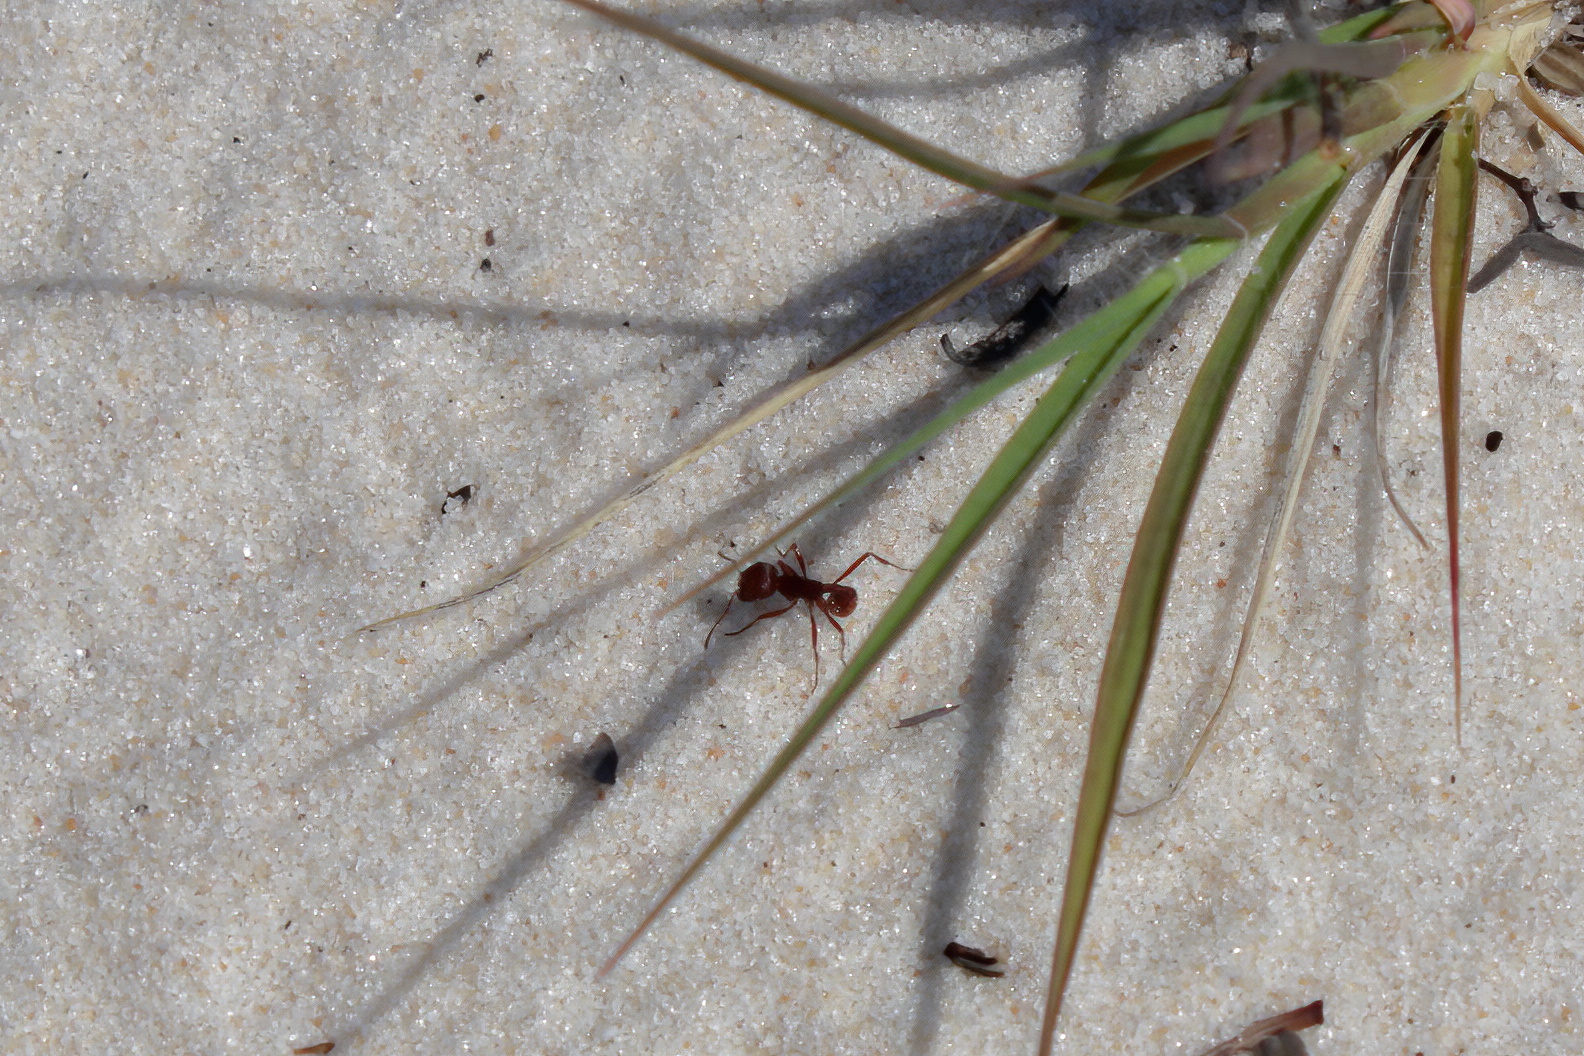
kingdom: Animalia
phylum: Arthropoda
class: Insecta
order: Hymenoptera
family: Formicidae
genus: Pogonomyrmex
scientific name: Pogonomyrmex badius
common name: Florida harvester ant
